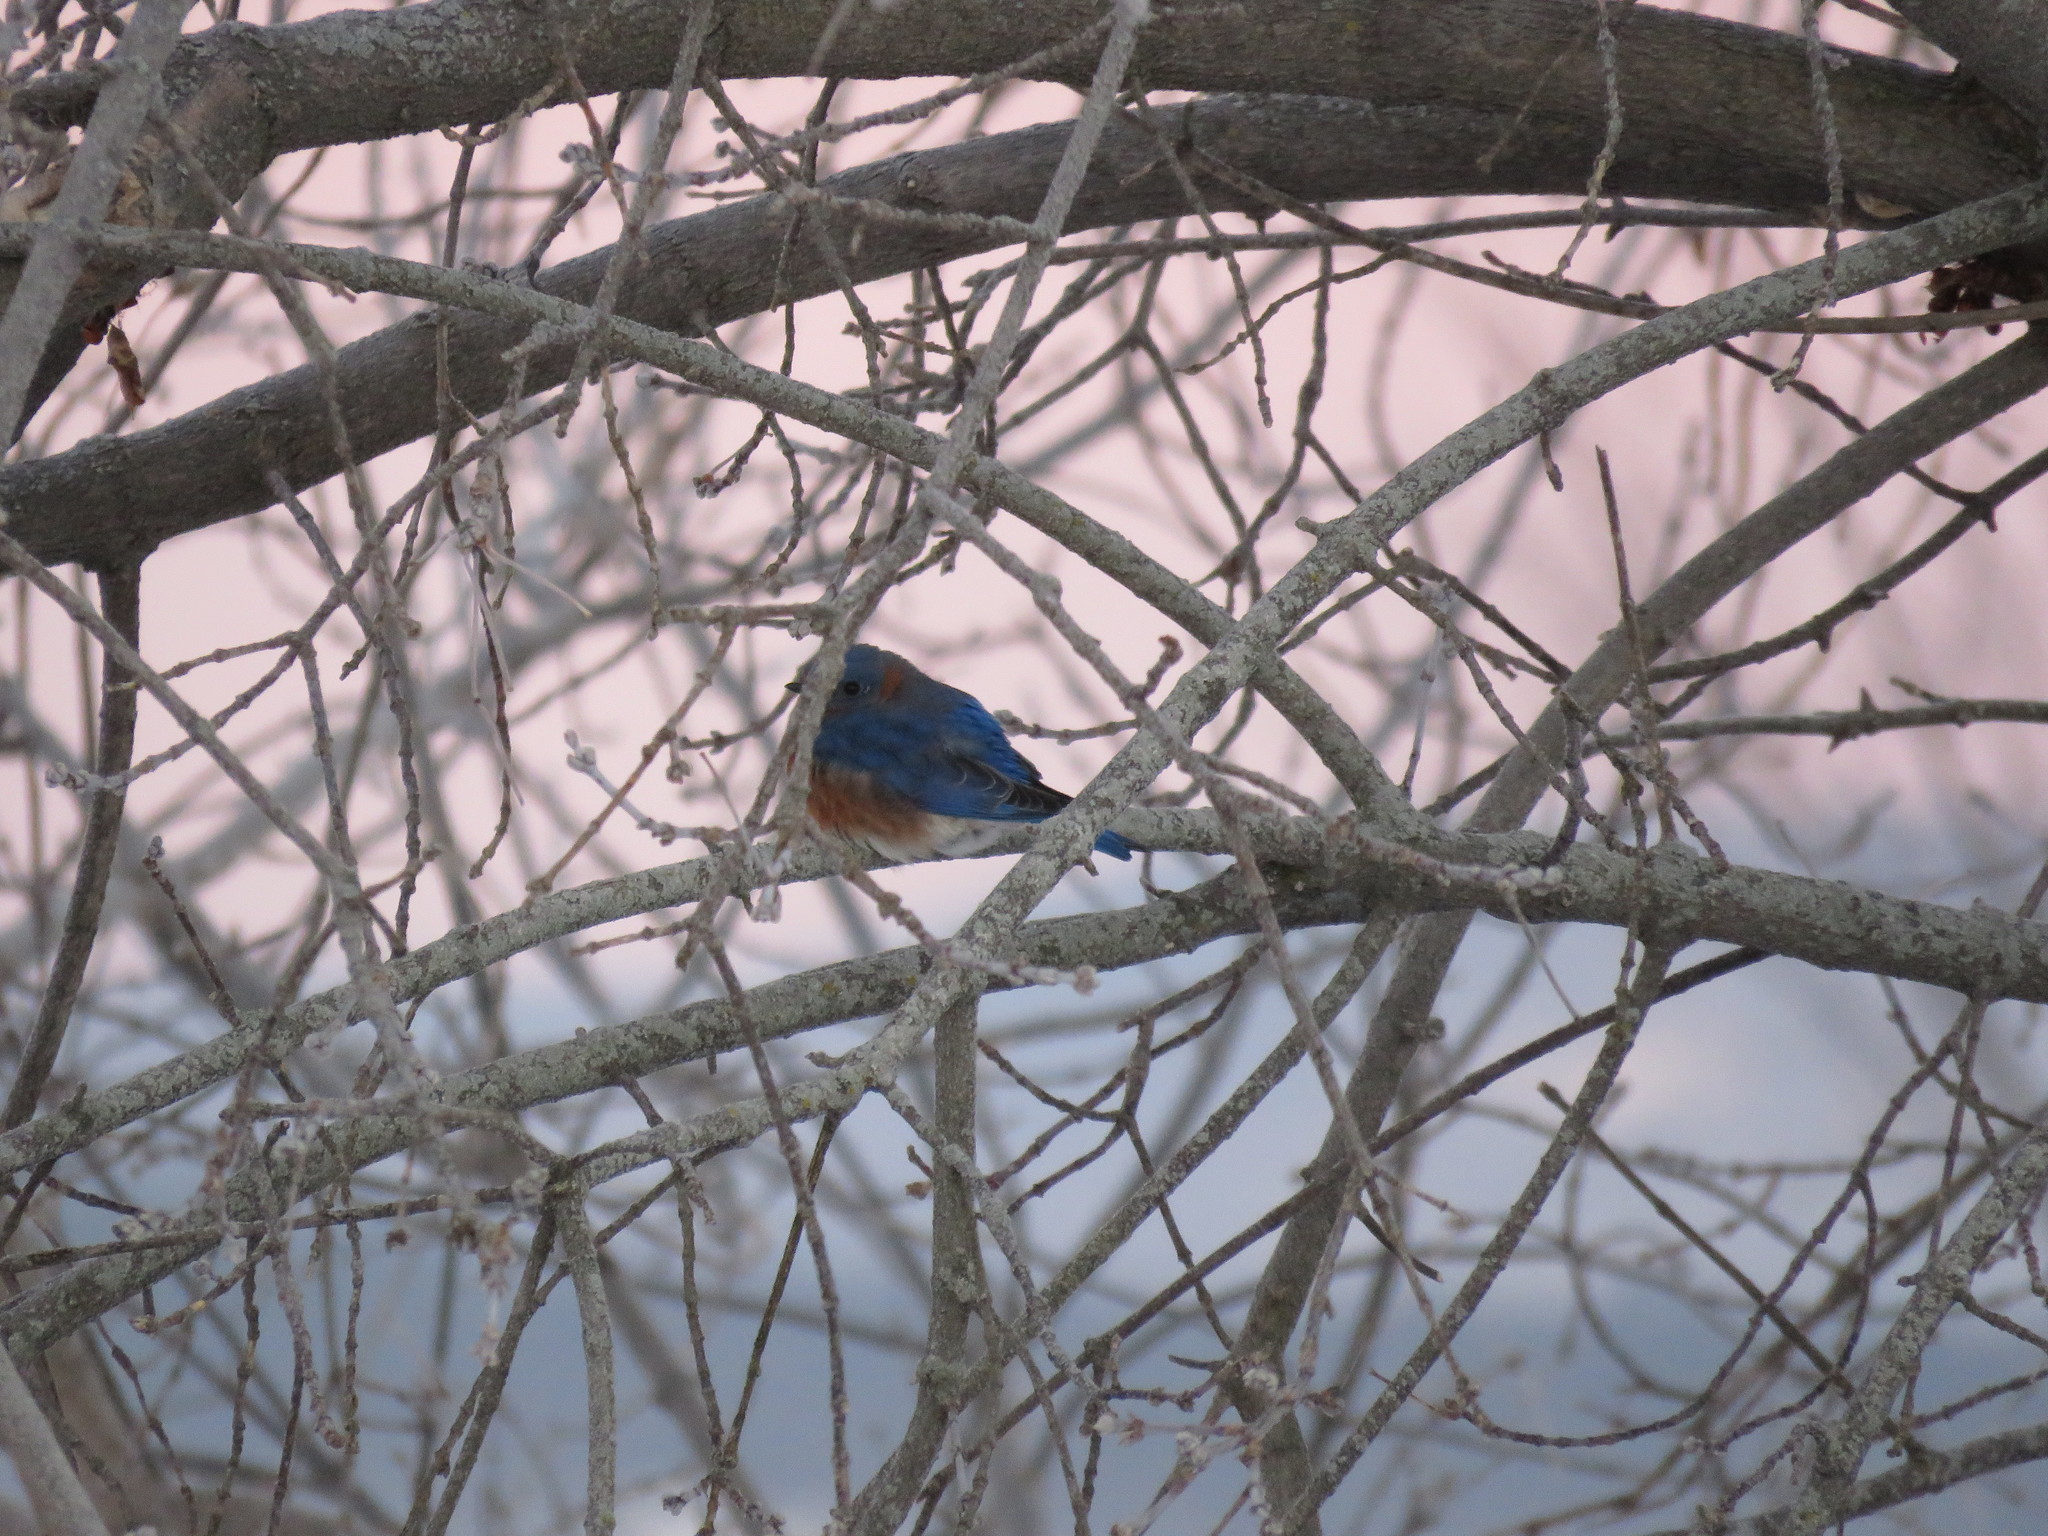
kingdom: Animalia
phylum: Chordata
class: Aves
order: Passeriformes
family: Turdidae
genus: Sialia
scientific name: Sialia sialis
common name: Eastern bluebird
